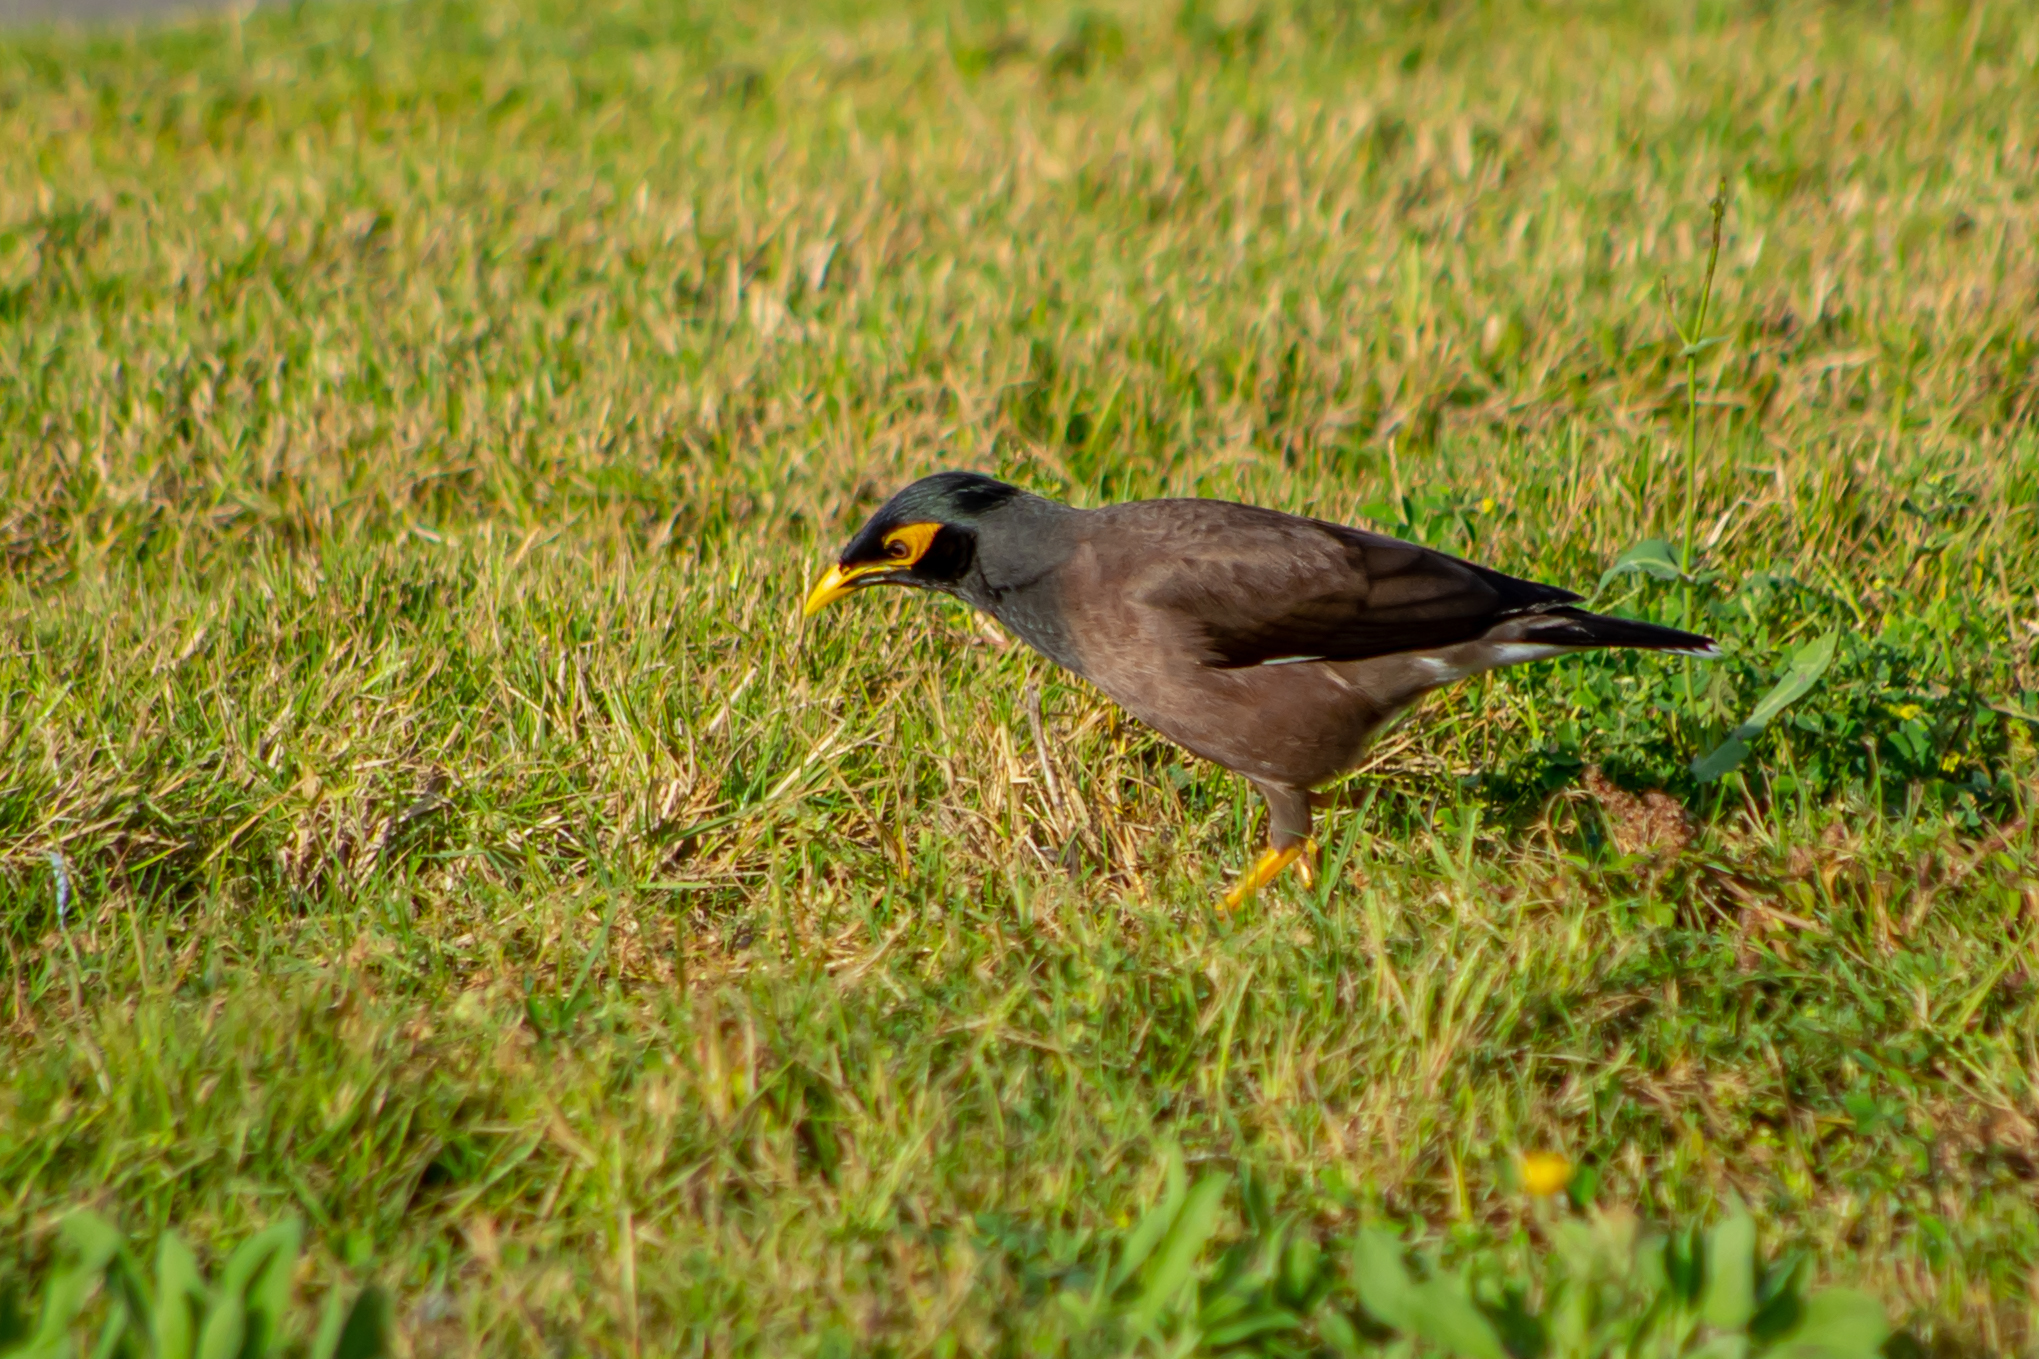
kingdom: Animalia
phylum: Chordata
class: Aves
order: Passeriformes
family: Sturnidae
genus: Acridotheres
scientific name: Acridotheres tristis
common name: Common myna
